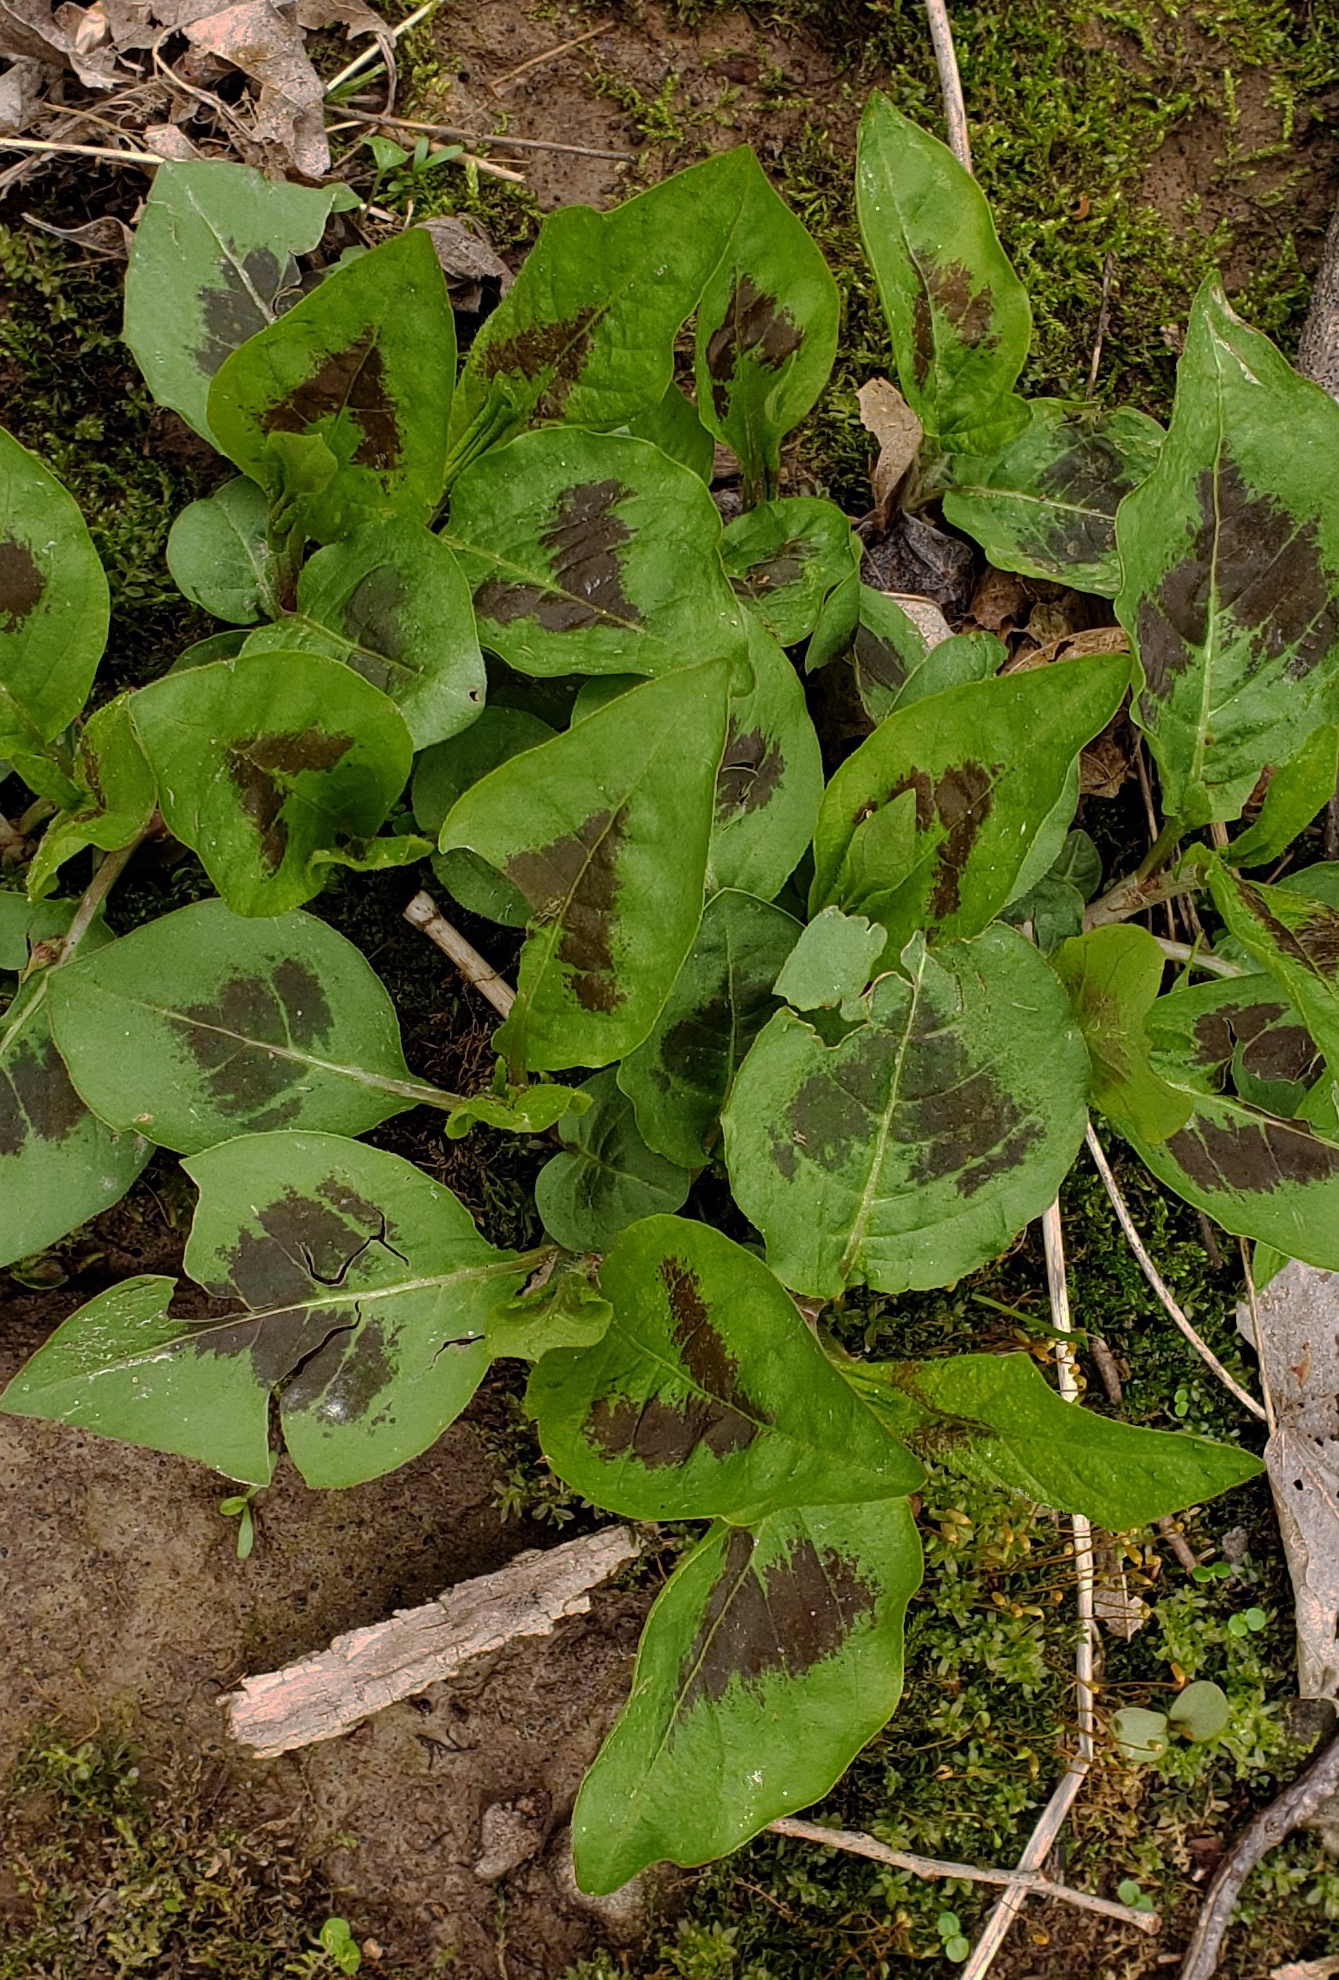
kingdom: Plantae
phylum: Tracheophyta
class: Magnoliopsida
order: Caryophyllales
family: Polygonaceae
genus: Persicaria
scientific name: Persicaria virginiana
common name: Jumpseed
